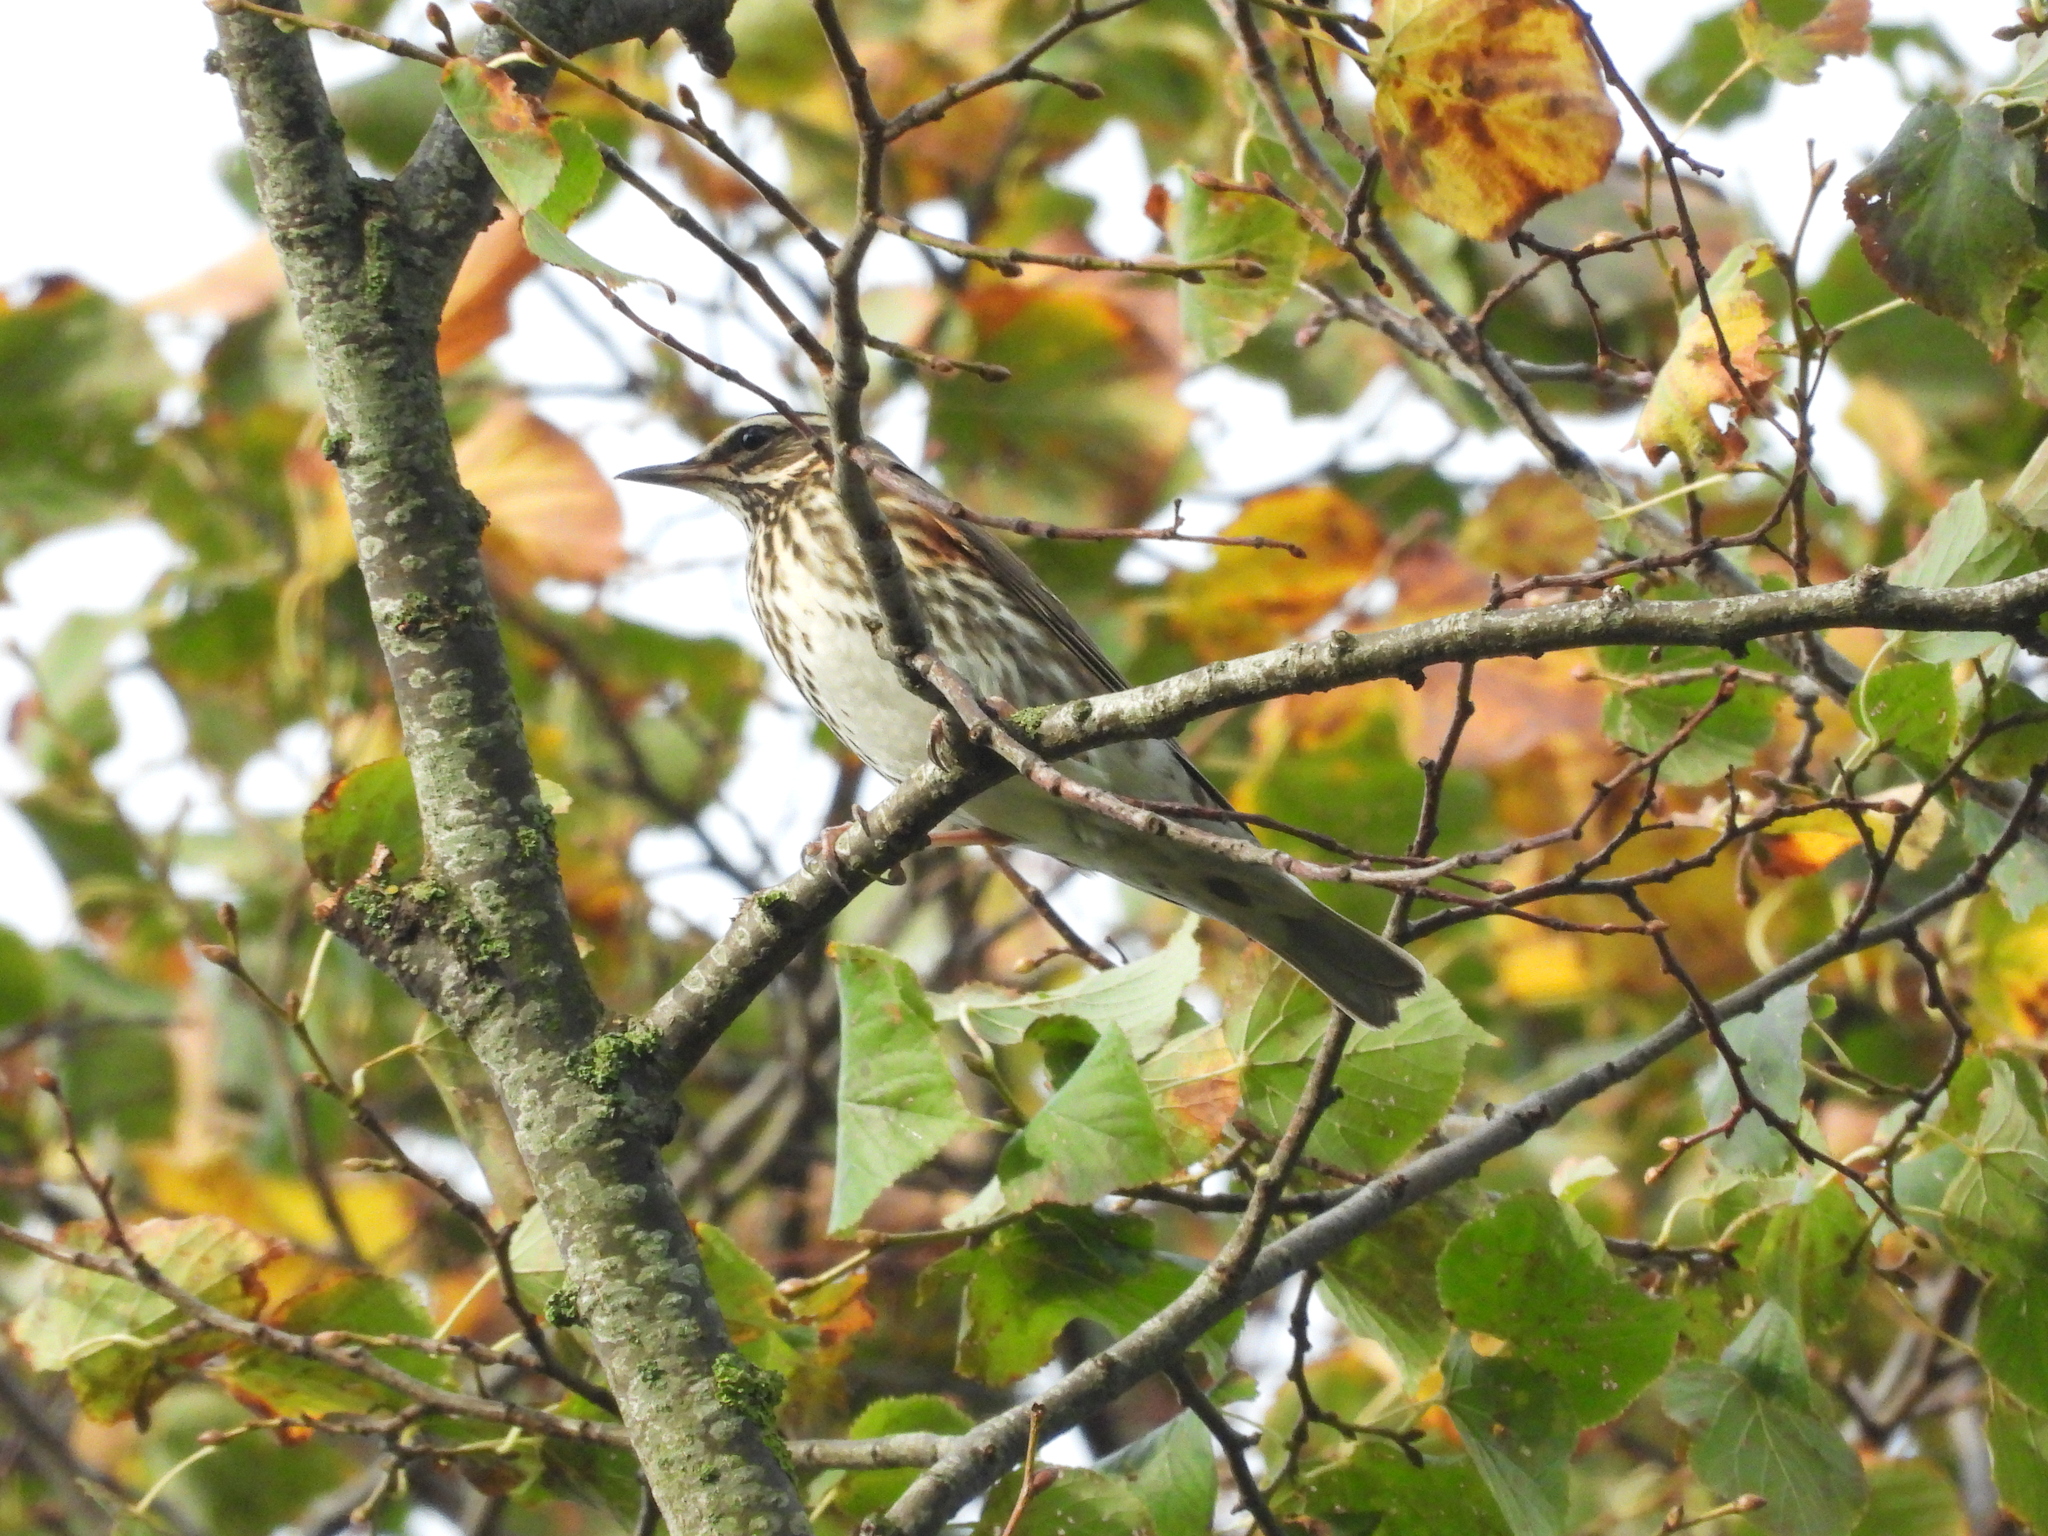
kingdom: Animalia
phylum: Chordata
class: Aves
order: Passeriformes
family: Turdidae
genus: Turdus
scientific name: Turdus iliacus
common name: Redwing
